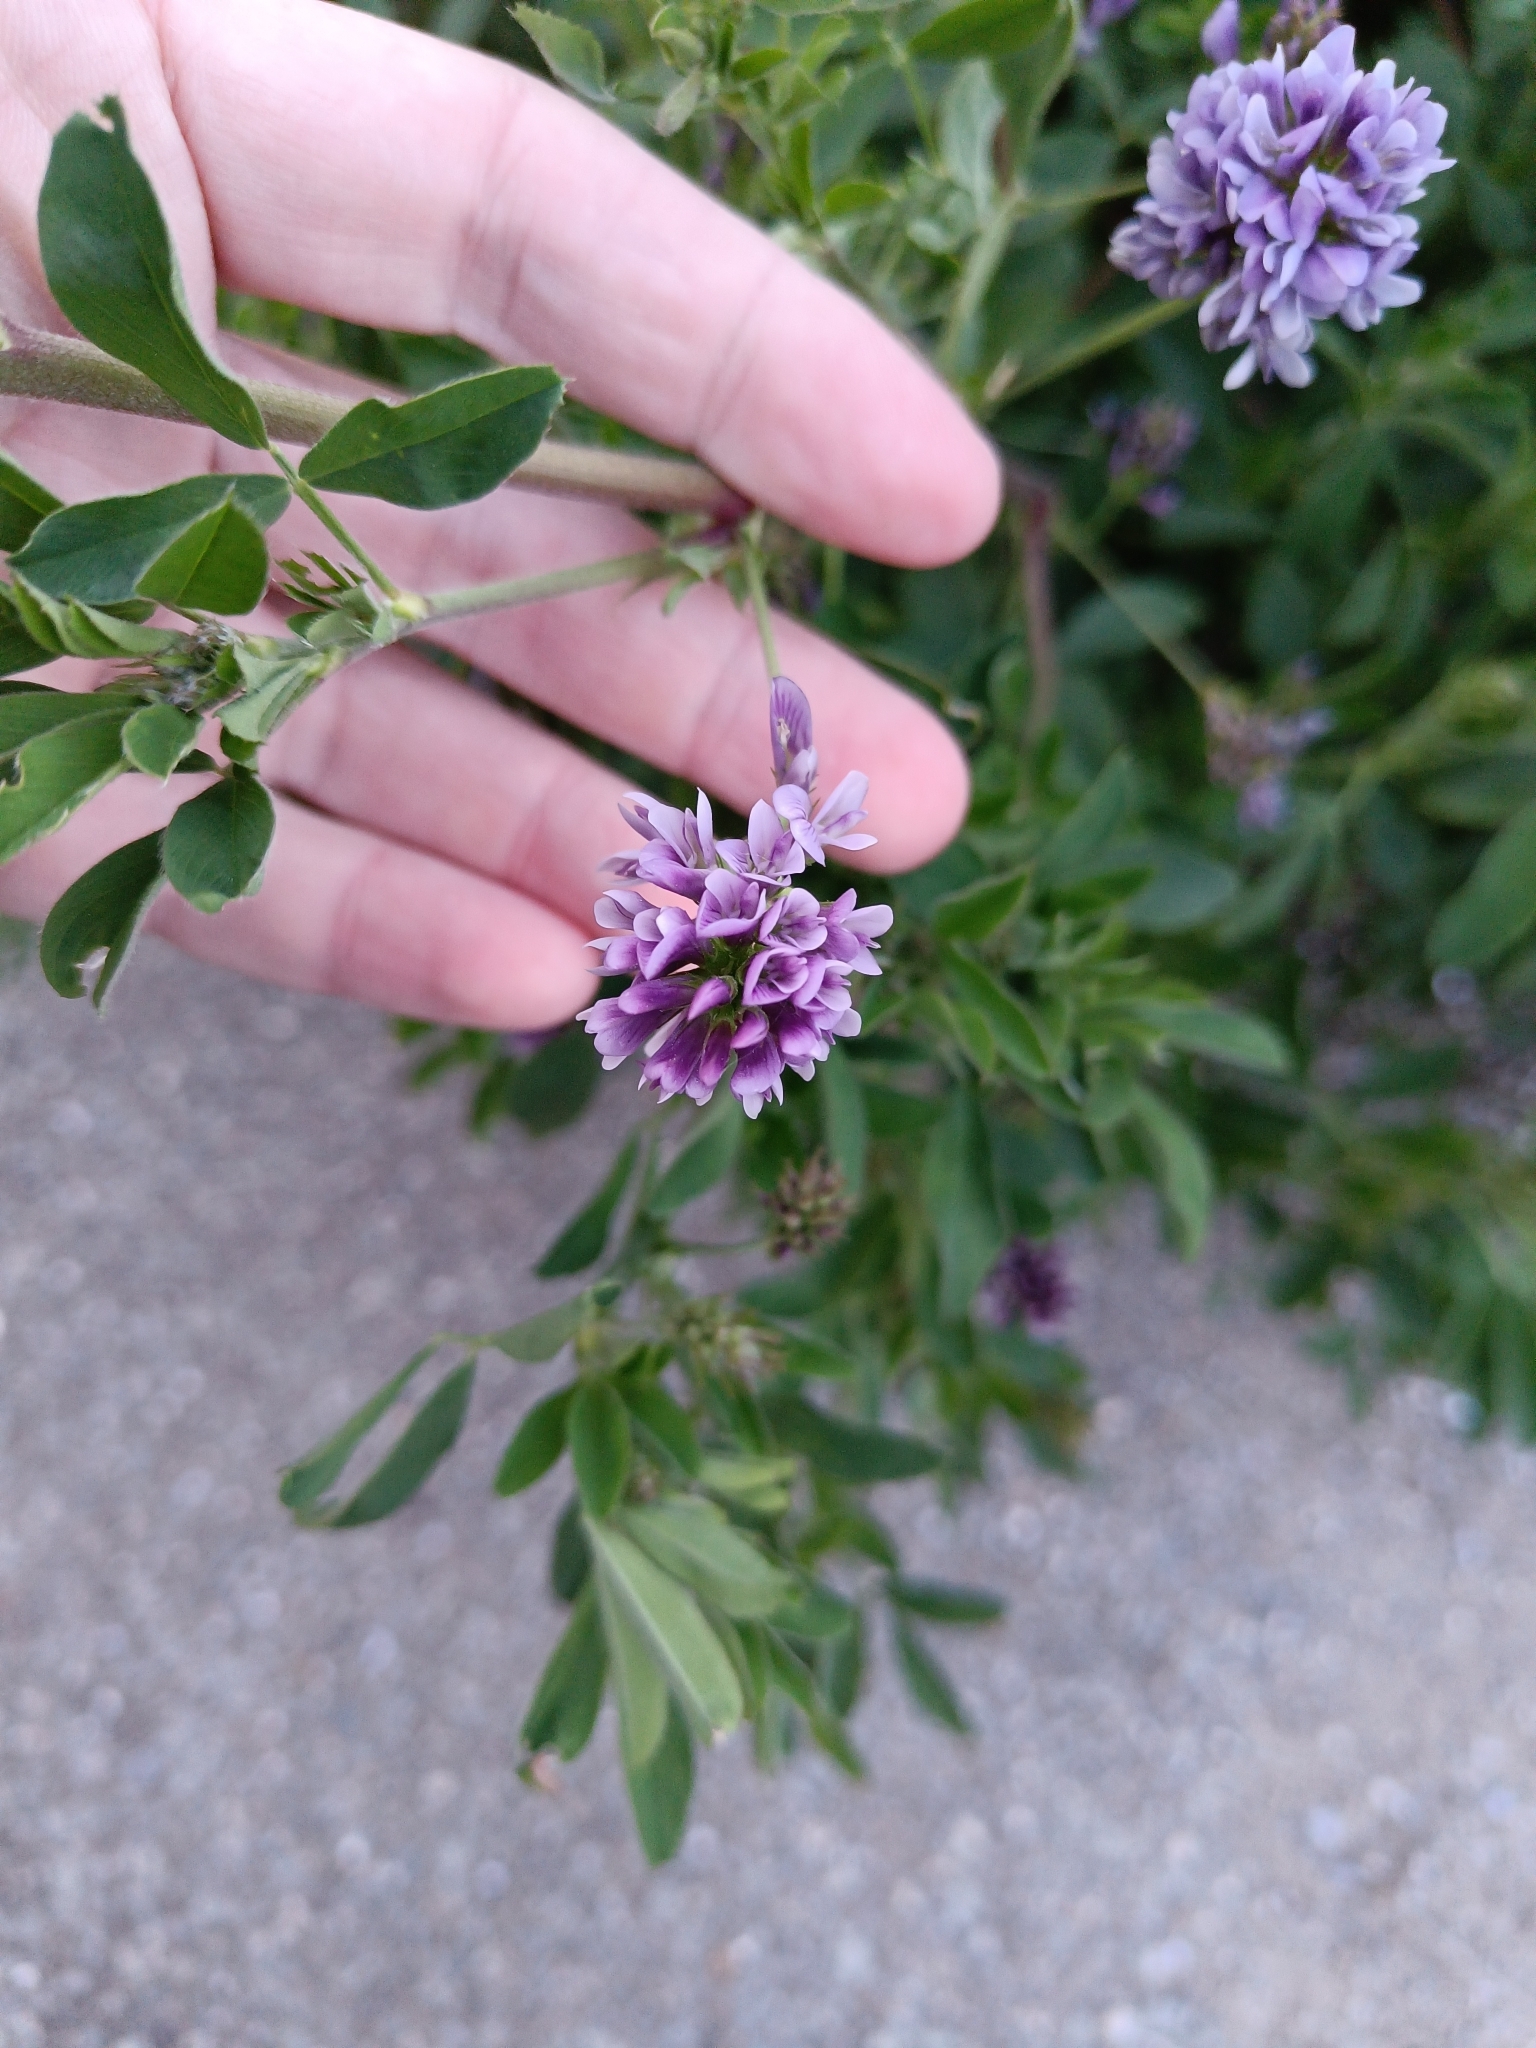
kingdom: Plantae
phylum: Tracheophyta
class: Magnoliopsida
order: Fabales
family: Fabaceae
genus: Medicago
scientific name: Medicago sativa
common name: Alfalfa
